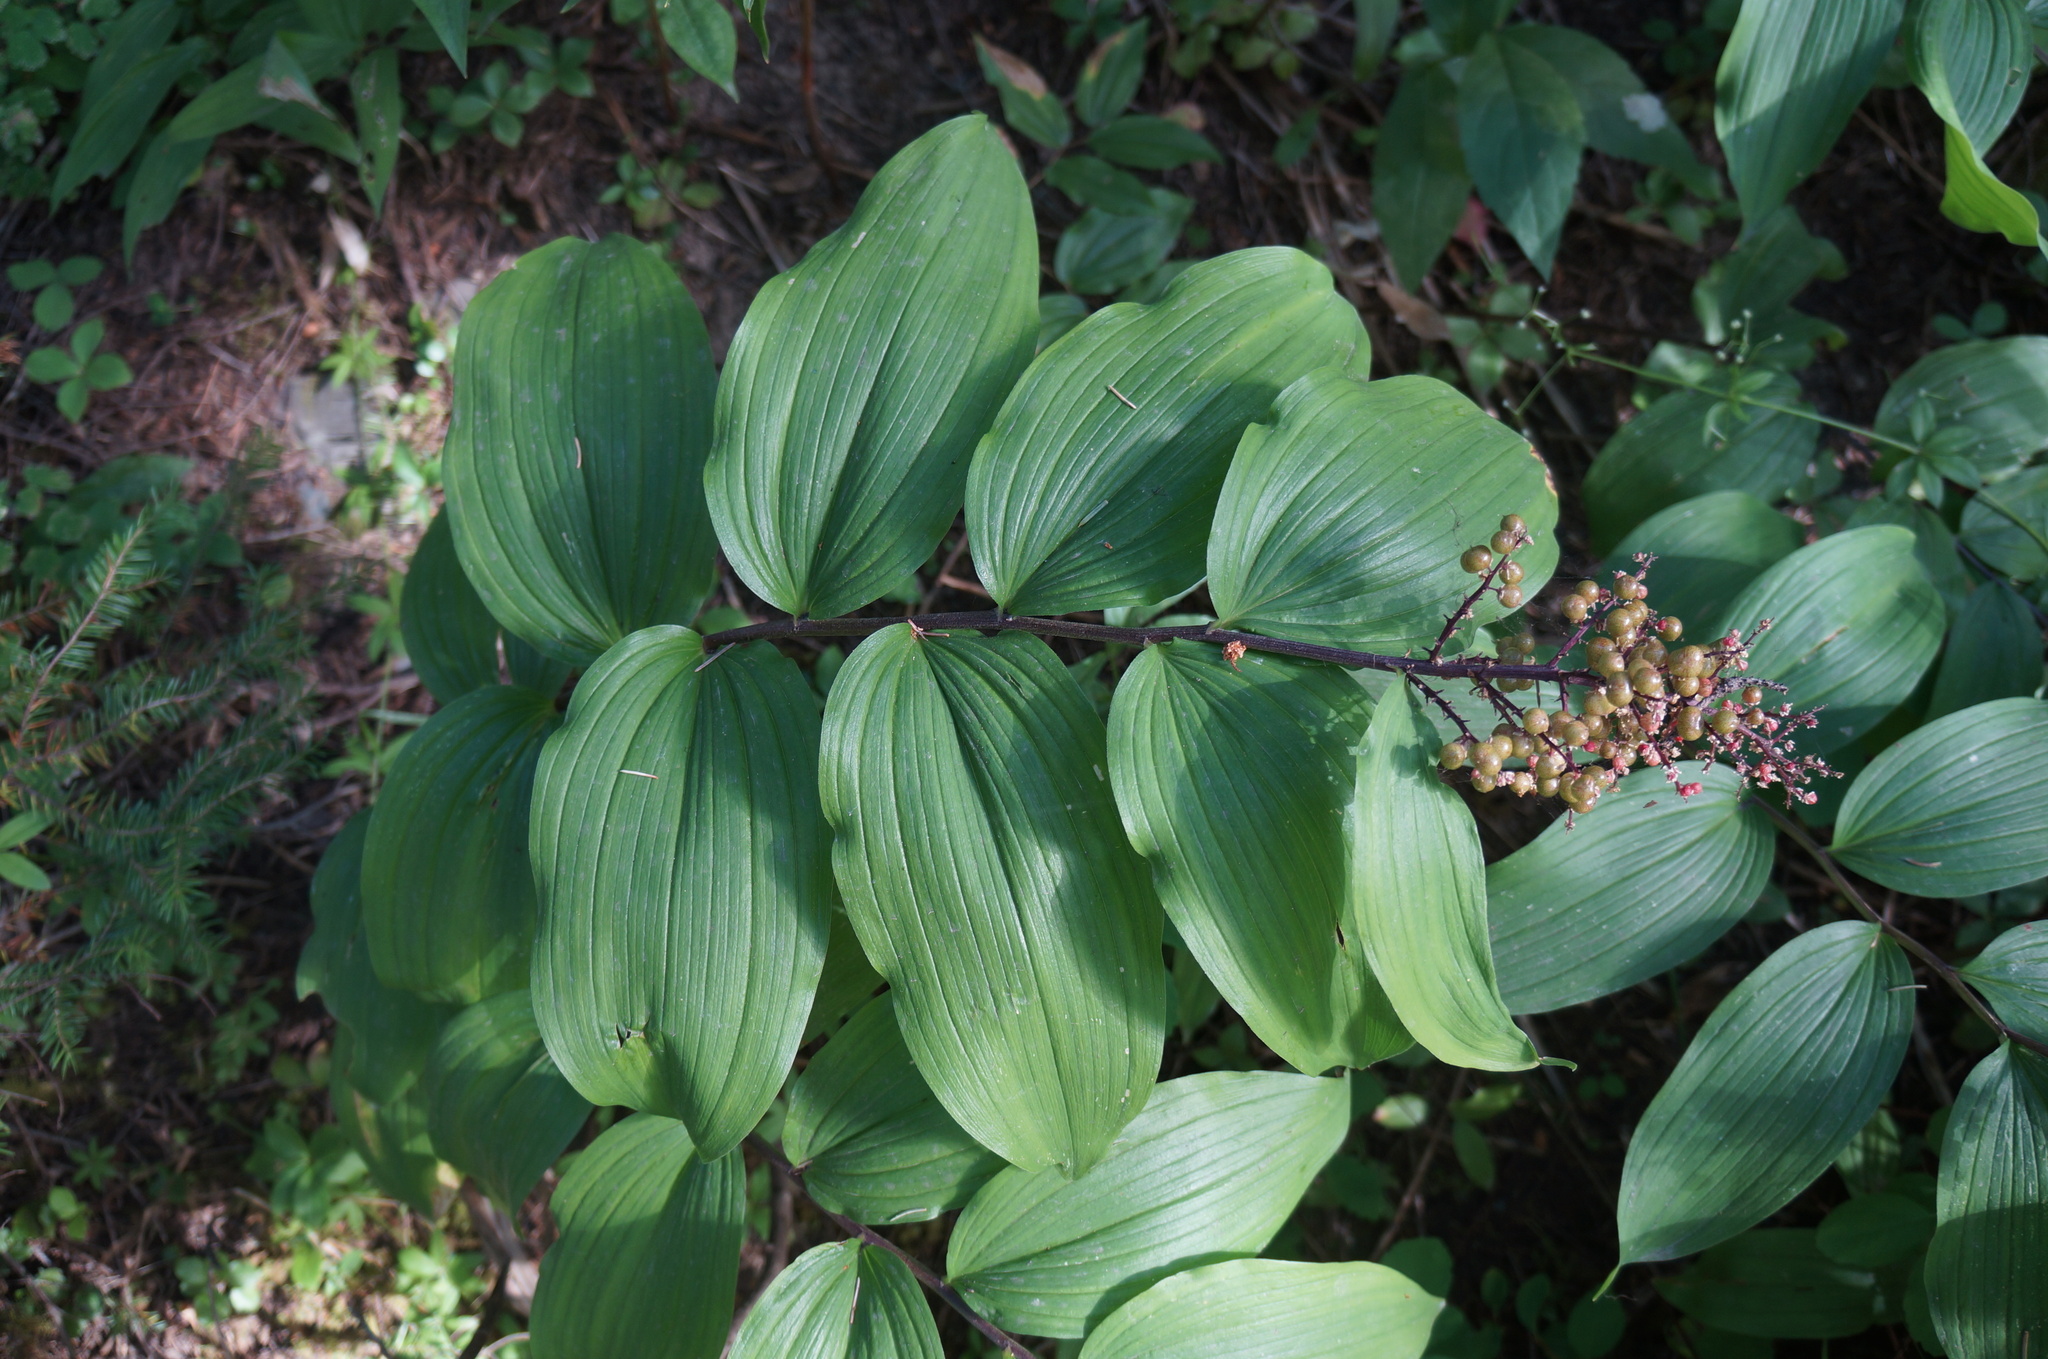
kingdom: Plantae
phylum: Tracheophyta
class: Liliopsida
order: Asparagales
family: Asparagaceae
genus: Maianthemum
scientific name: Maianthemum racemosum
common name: False spikenard
